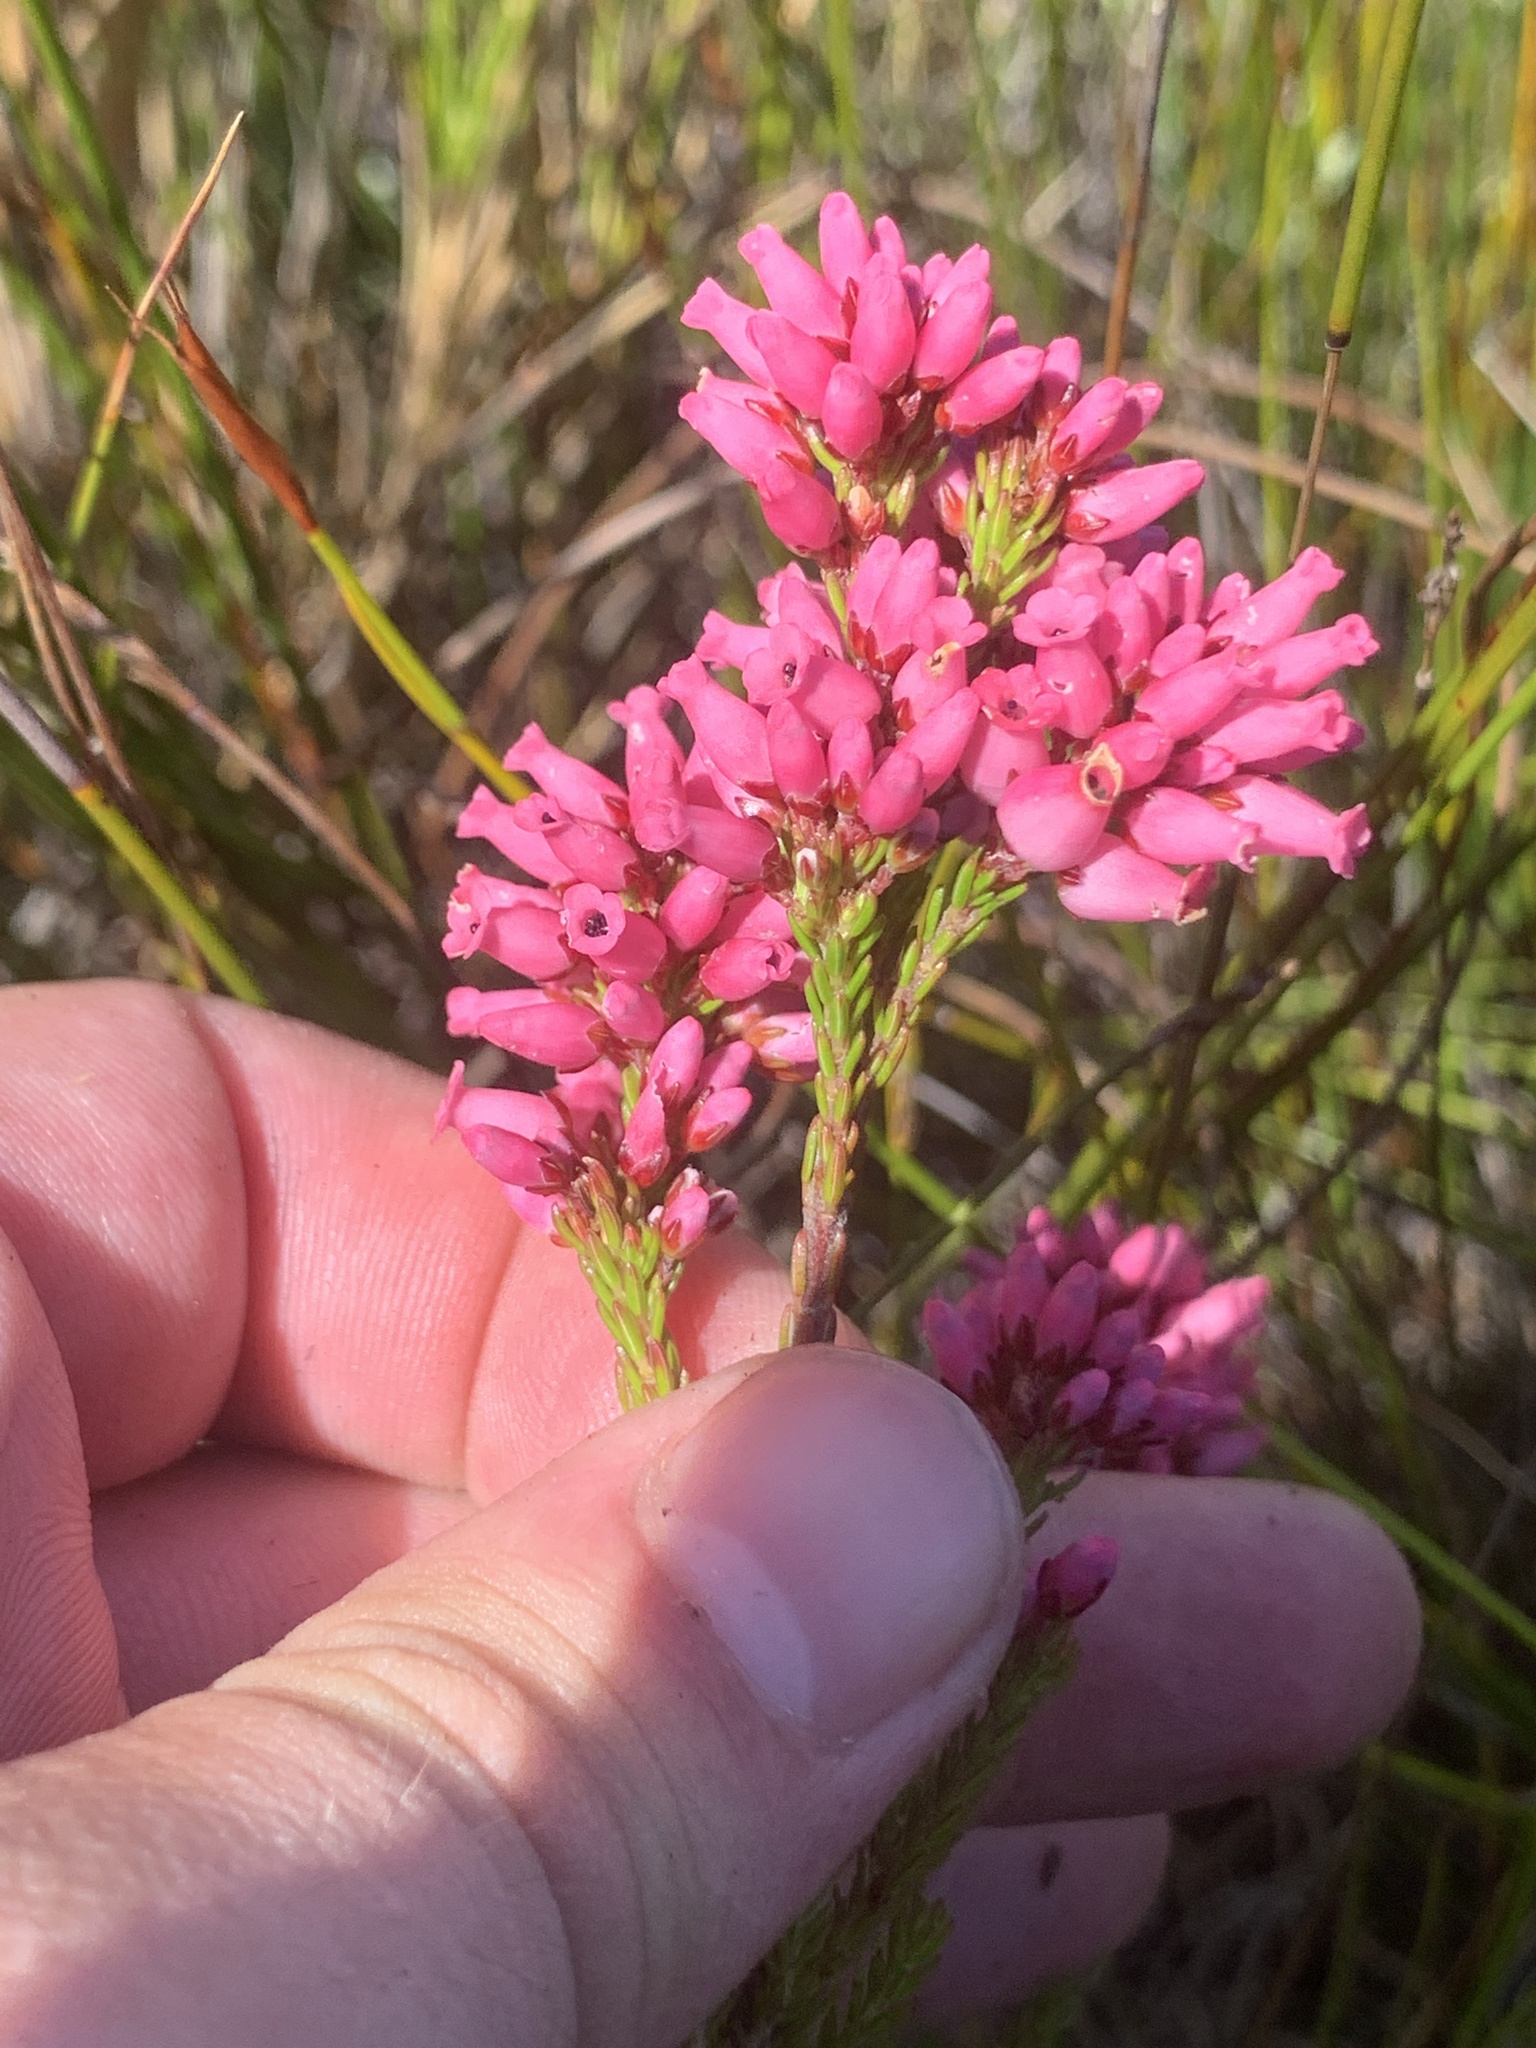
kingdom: Plantae
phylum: Tracheophyta
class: Magnoliopsida
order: Ericales
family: Ericaceae
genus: Erica
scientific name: Erica tenella
